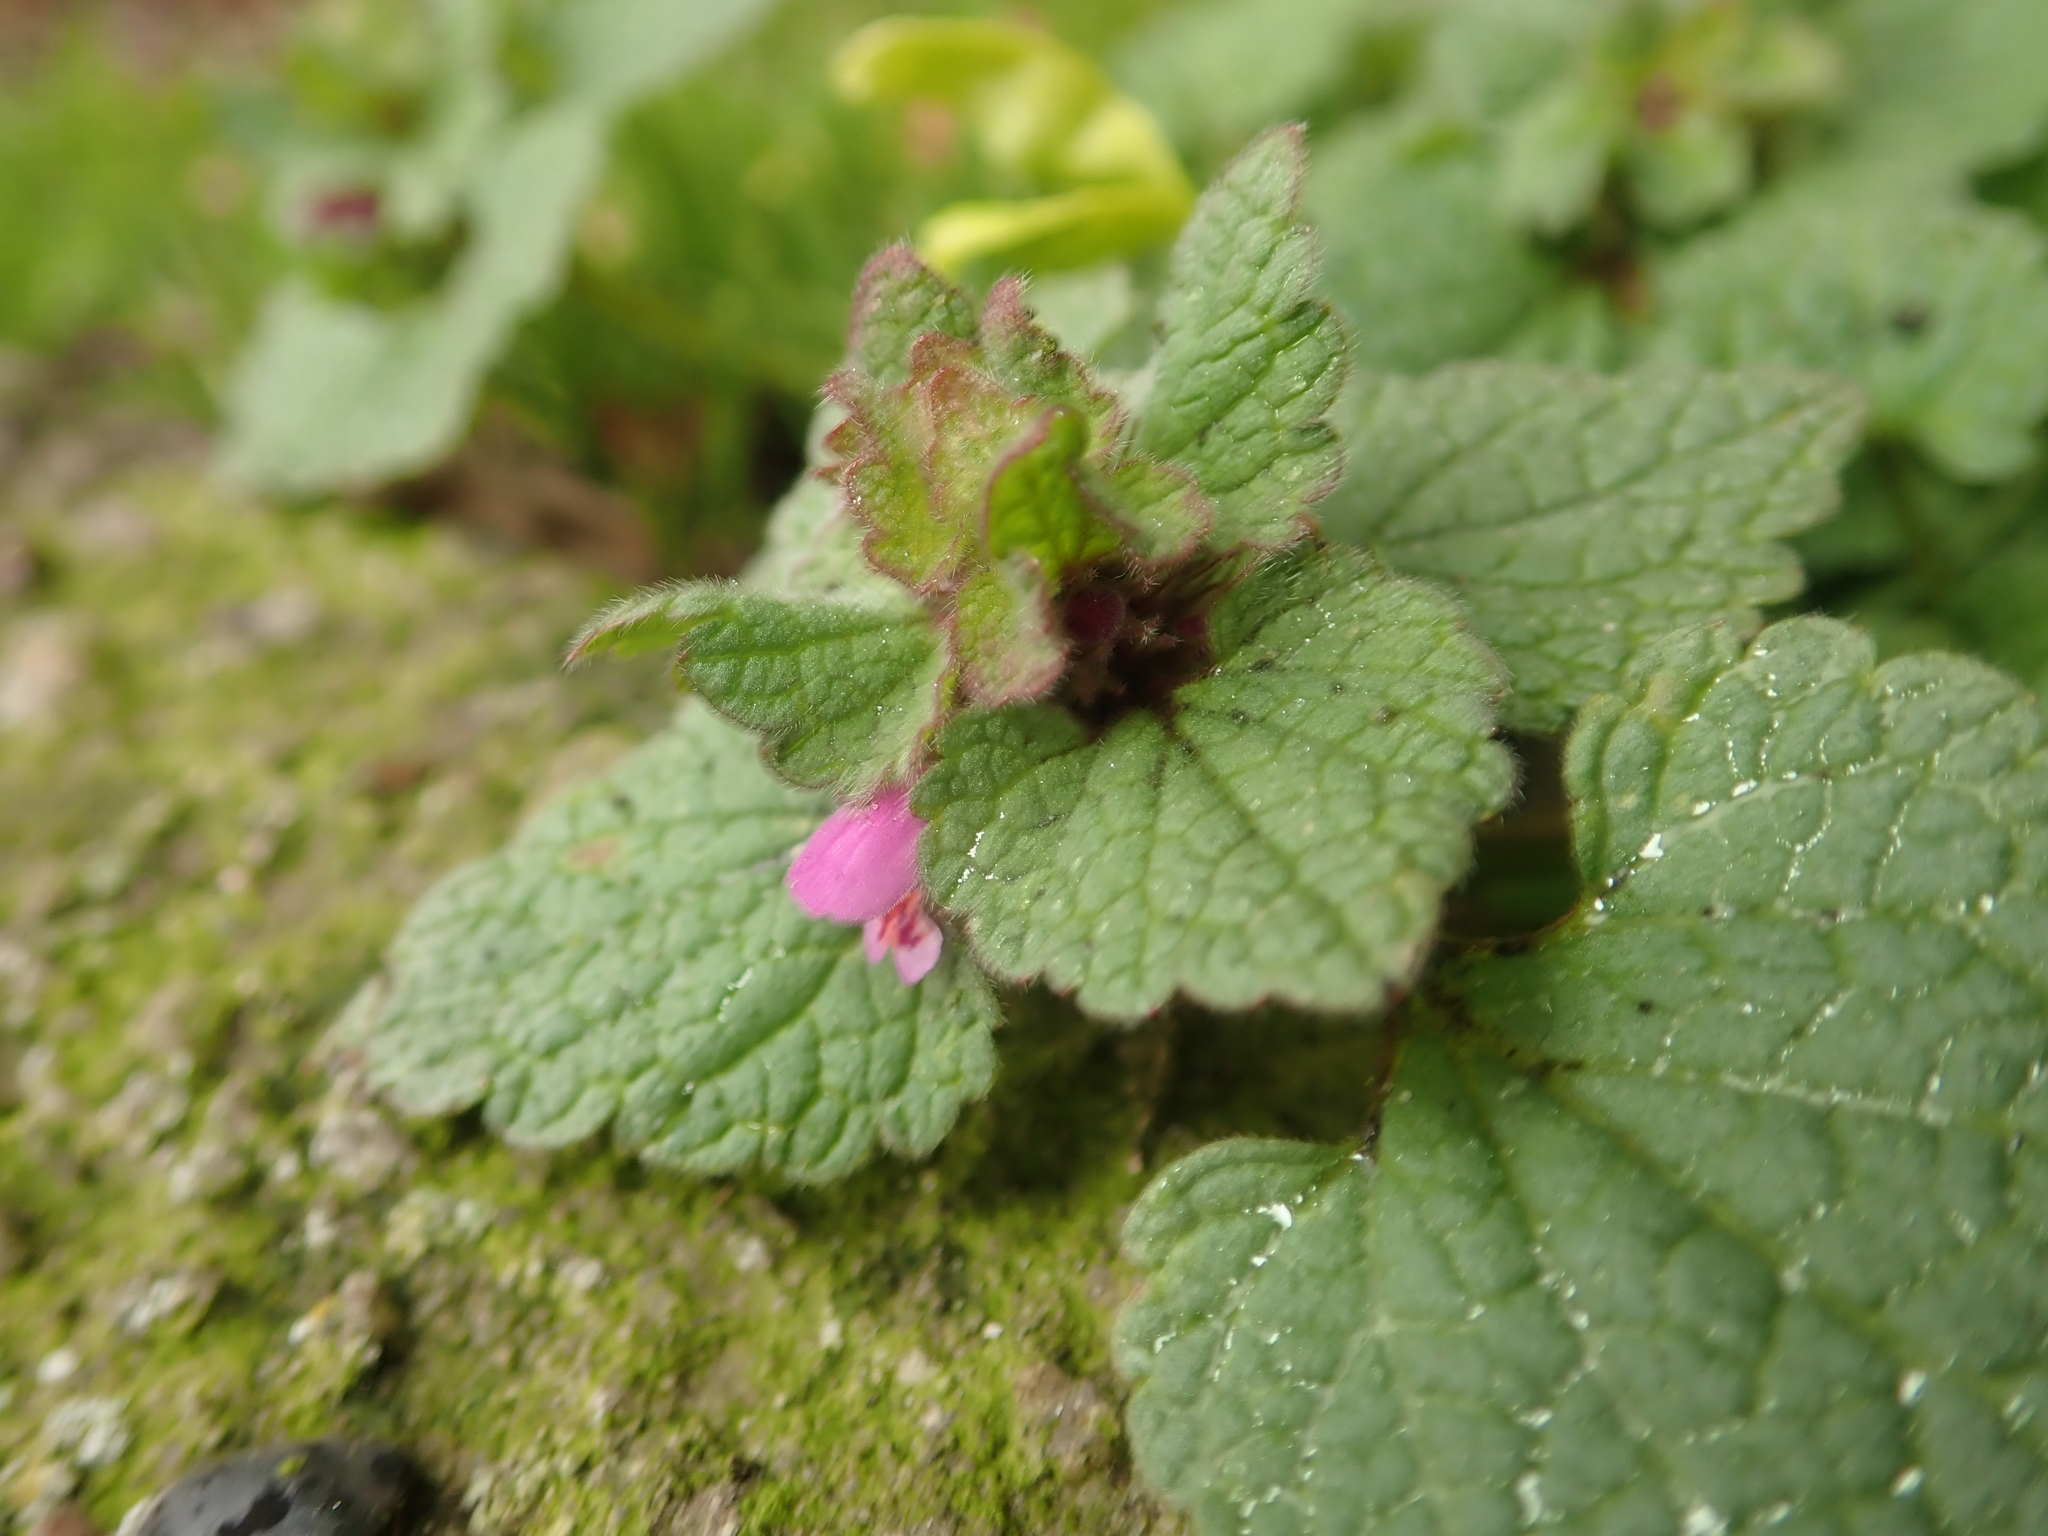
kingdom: Plantae
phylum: Tracheophyta
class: Magnoliopsida
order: Lamiales
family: Lamiaceae
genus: Lamium
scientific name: Lamium purpureum
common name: Red dead-nettle
